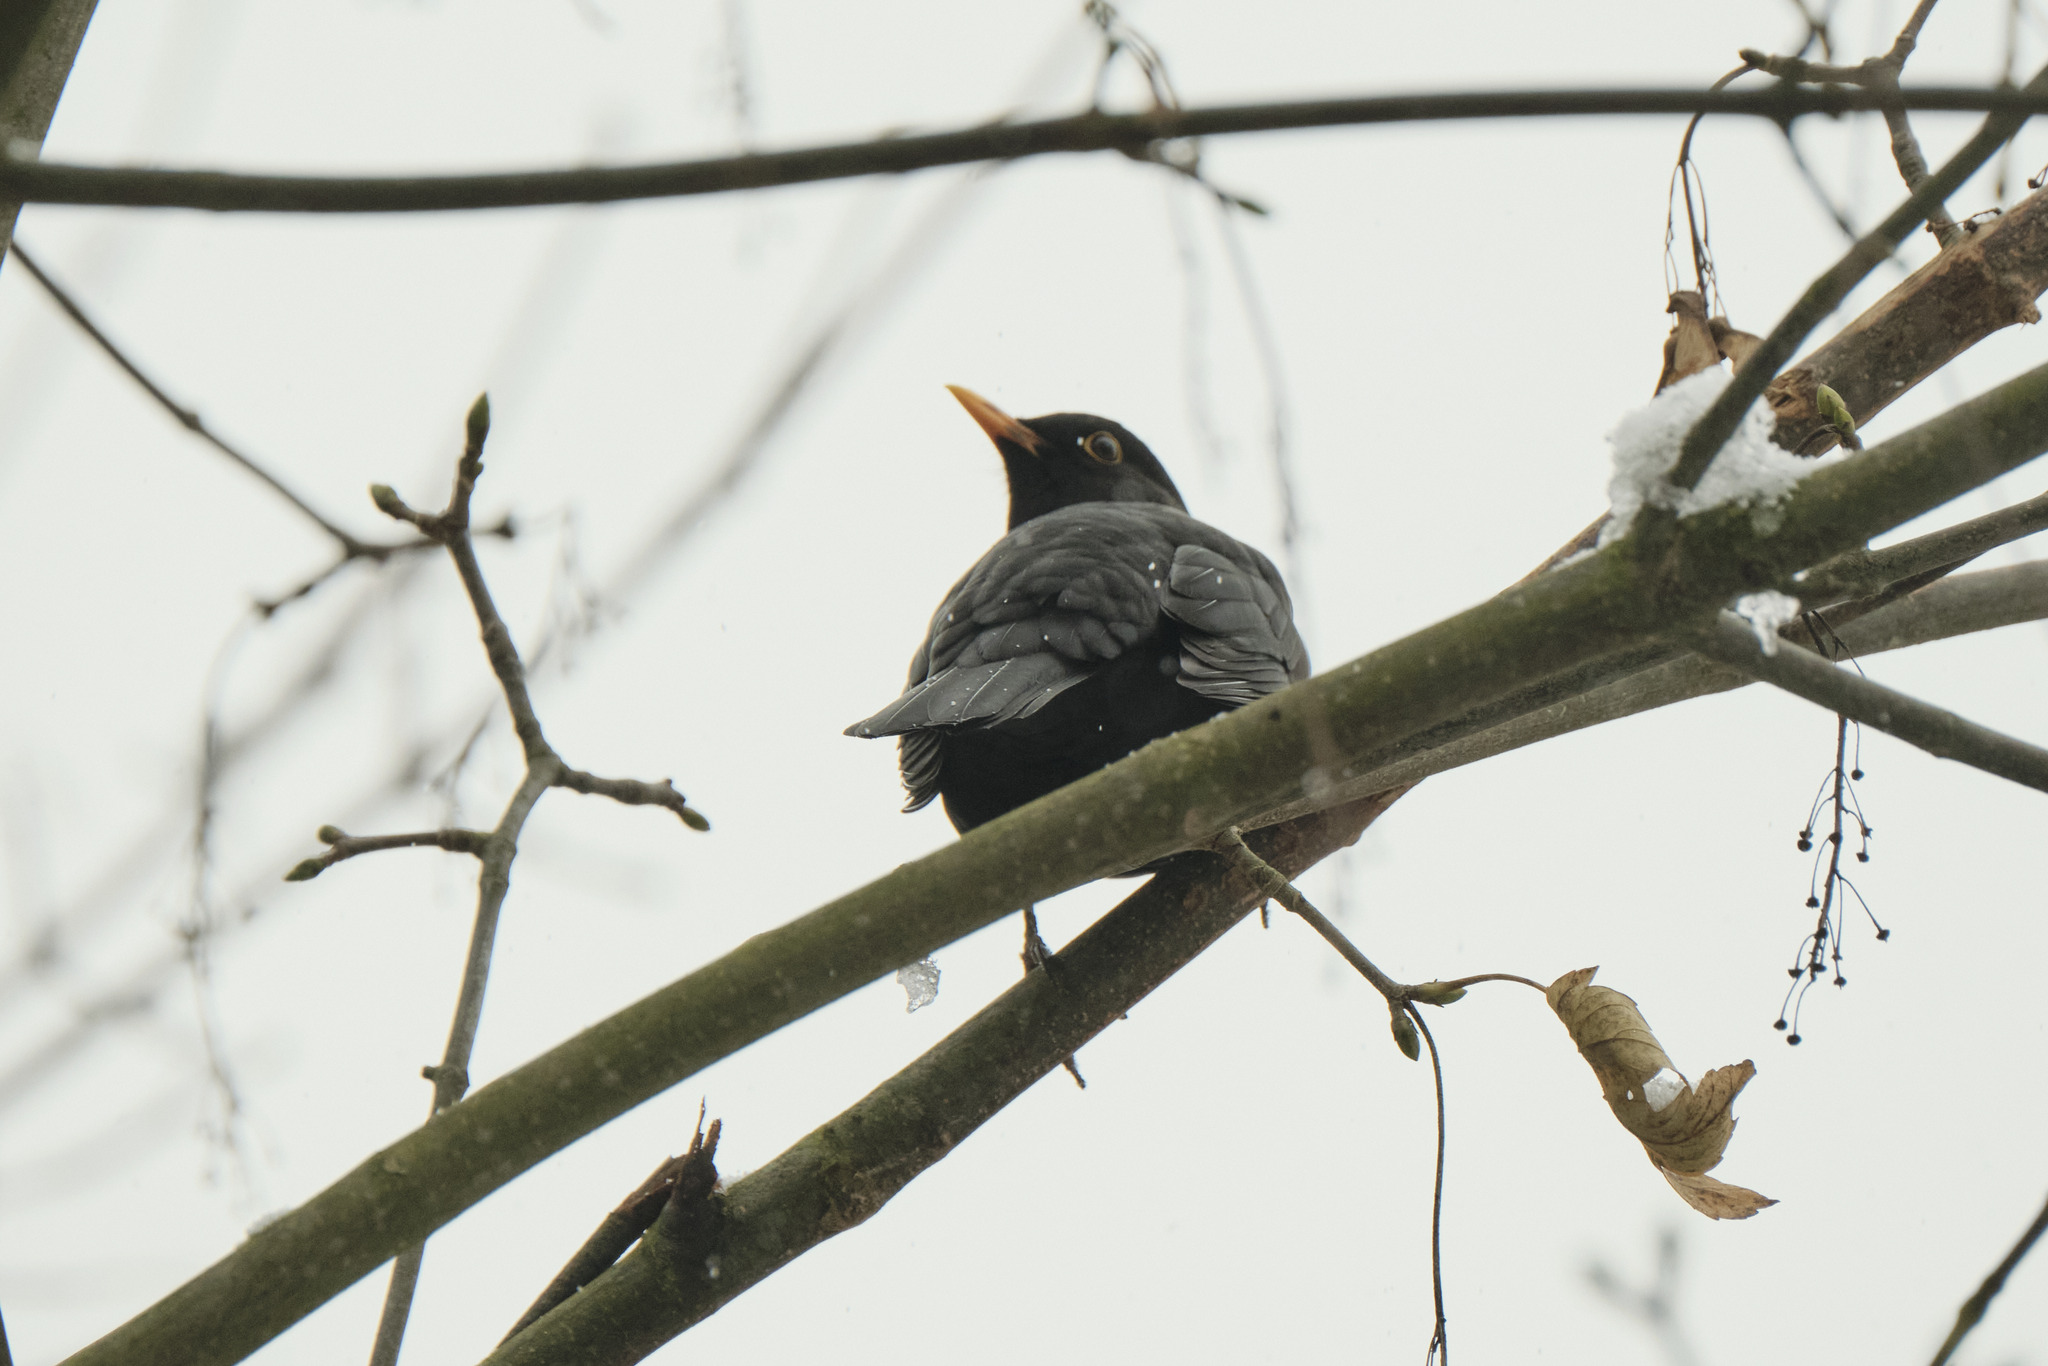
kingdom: Animalia
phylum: Chordata
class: Aves
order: Passeriformes
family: Turdidae
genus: Turdus
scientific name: Turdus merula
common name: Common blackbird
